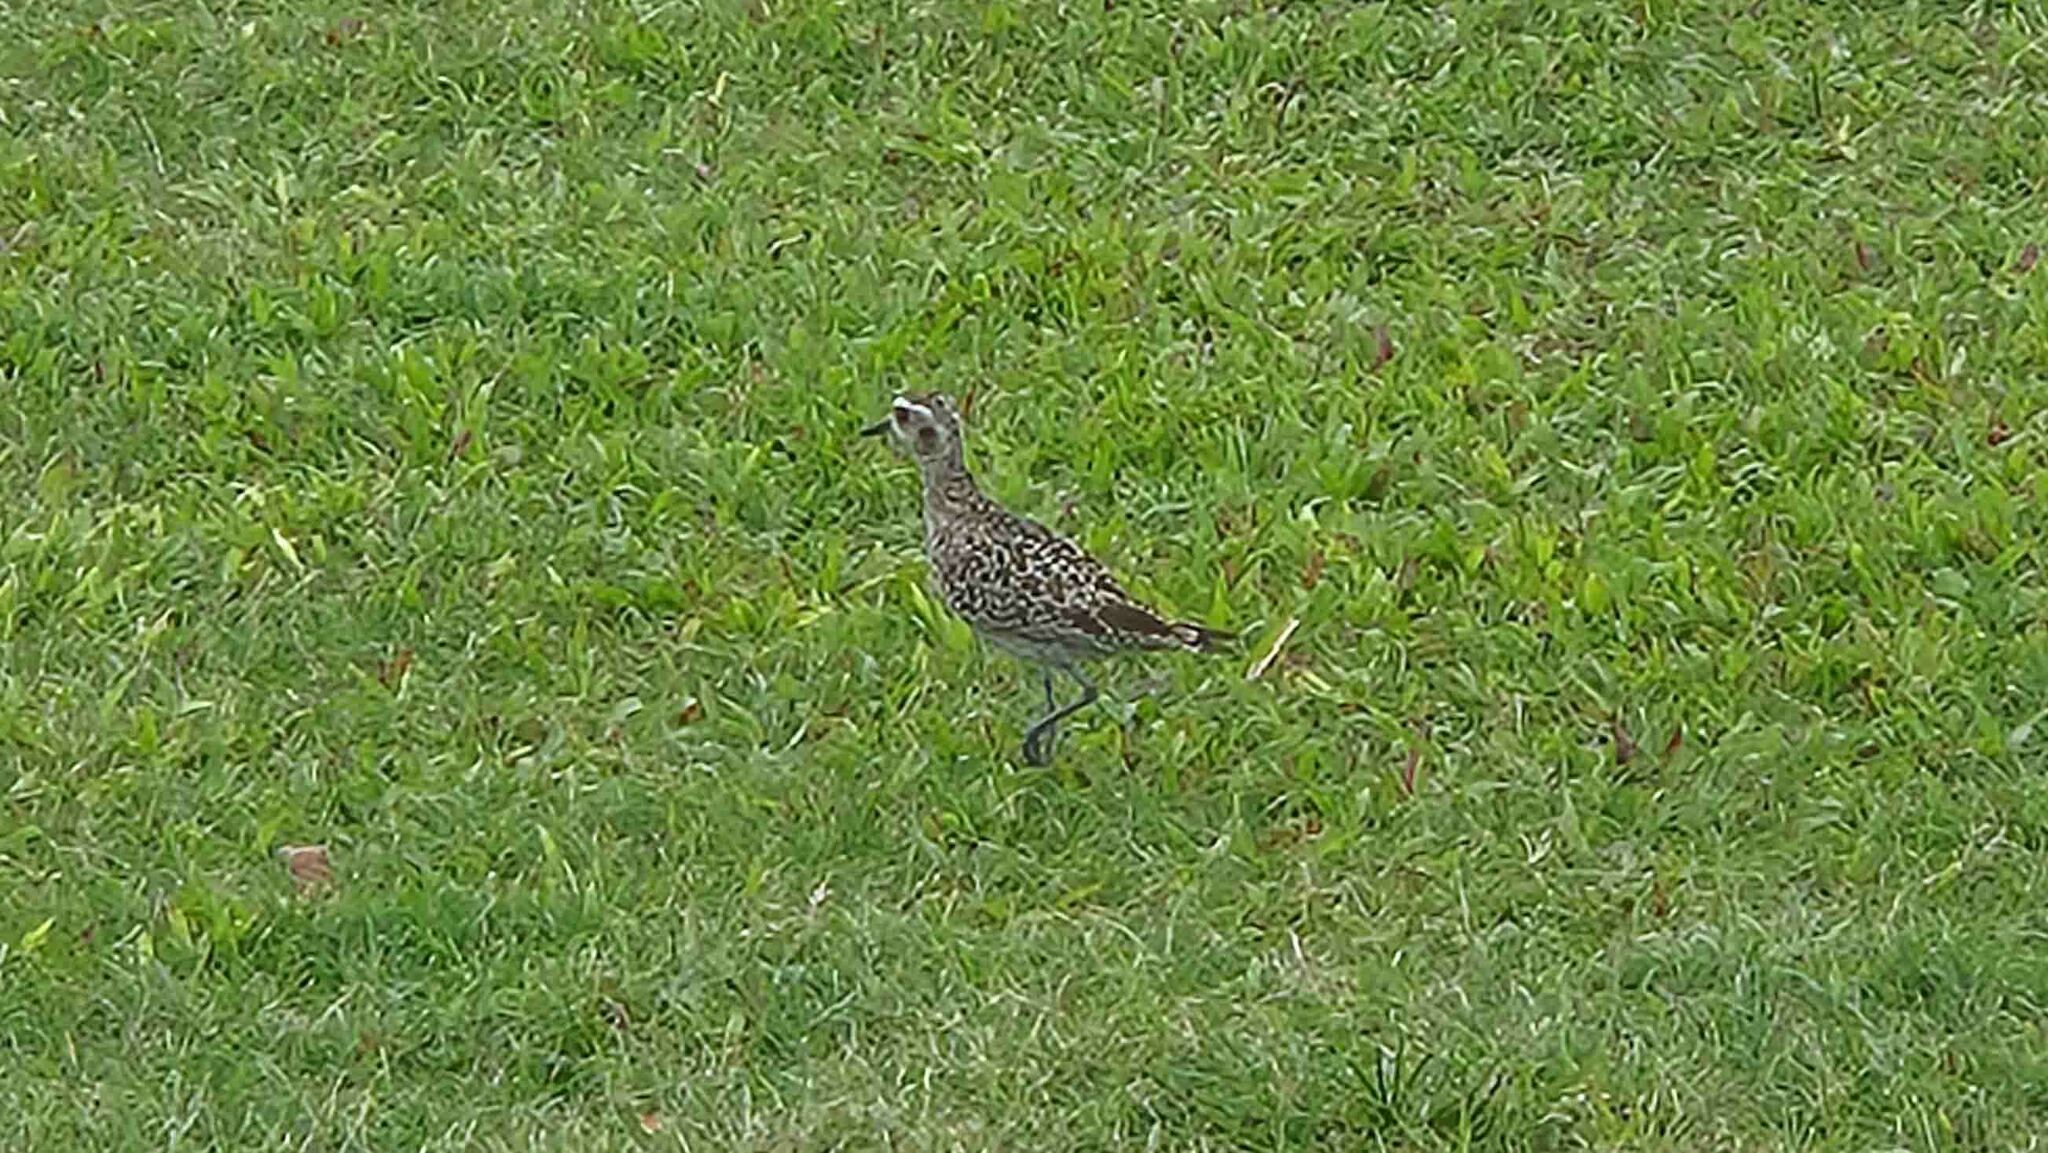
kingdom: Animalia
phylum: Chordata
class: Aves
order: Charadriiformes
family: Charadriidae
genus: Pluvialis
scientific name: Pluvialis fulva
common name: Pacific golden plover
